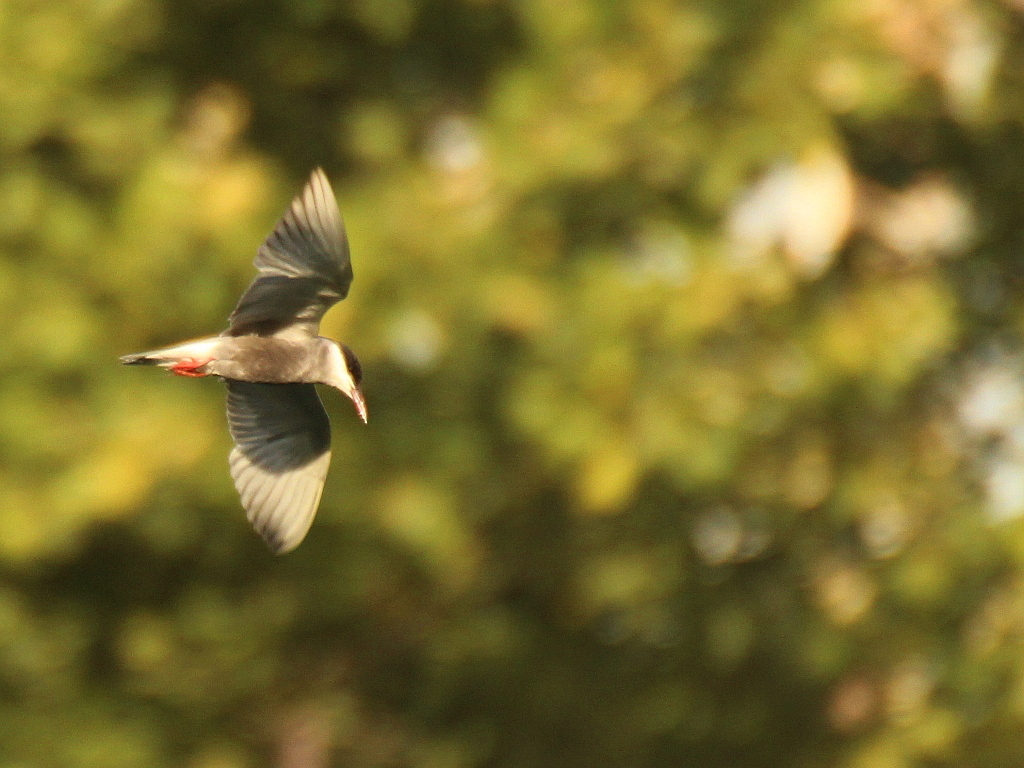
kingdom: Animalia
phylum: Chordata
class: Aves
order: Charadriiformes
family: Laridae
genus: Chlidonias
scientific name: Chlidonias hybrida
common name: Whiskered tern
